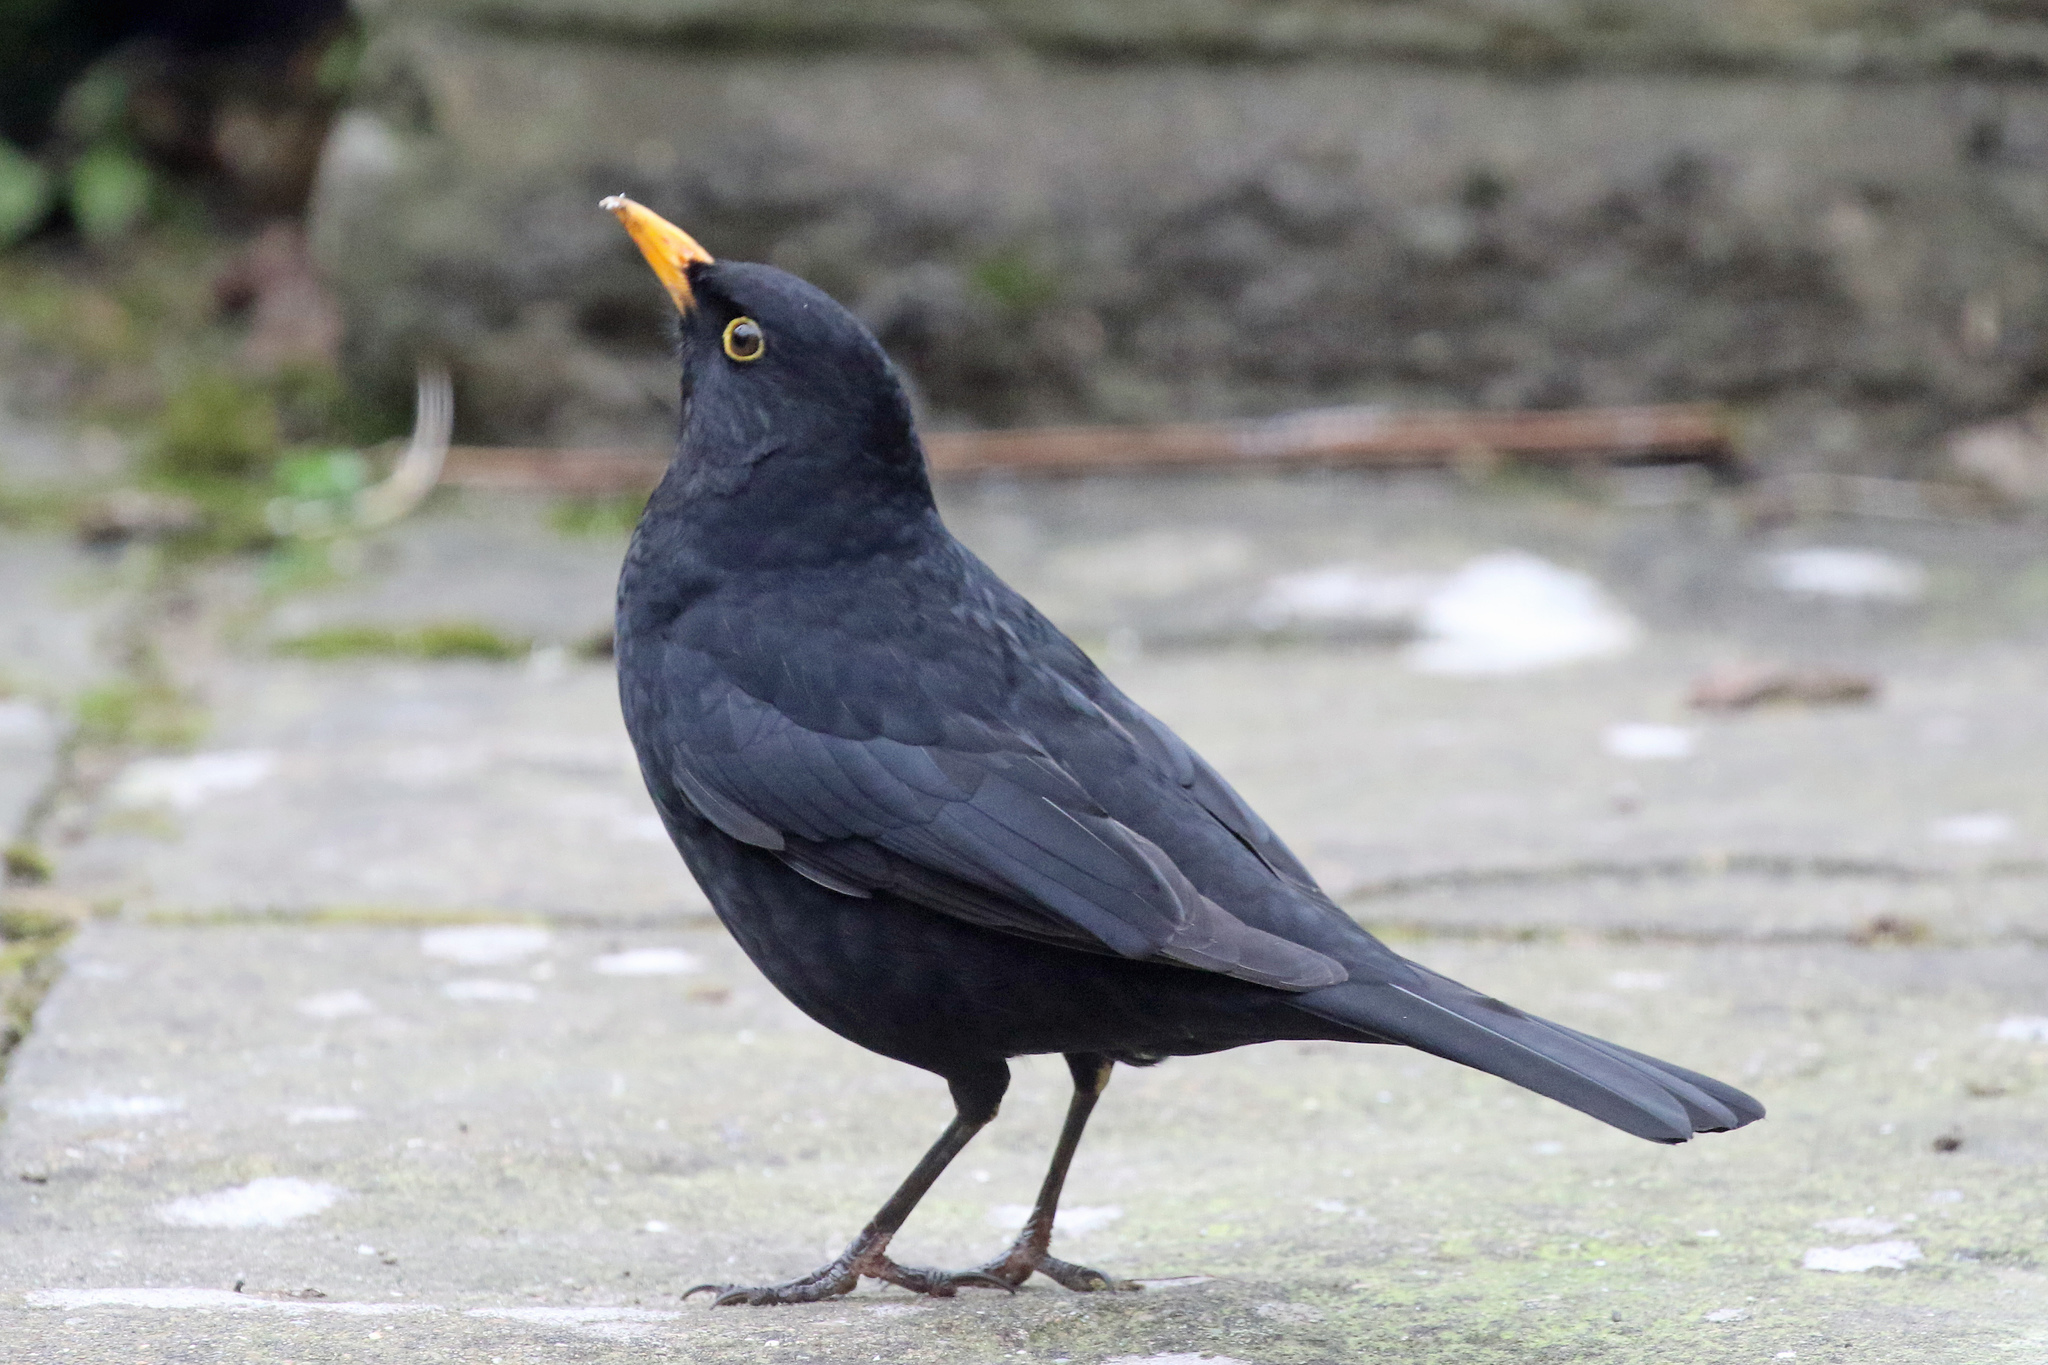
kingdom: Animalia
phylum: Chordata
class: Aves
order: Passeriformes
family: Turdidae
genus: Turdus
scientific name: Turdus merula
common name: Common blackbird
